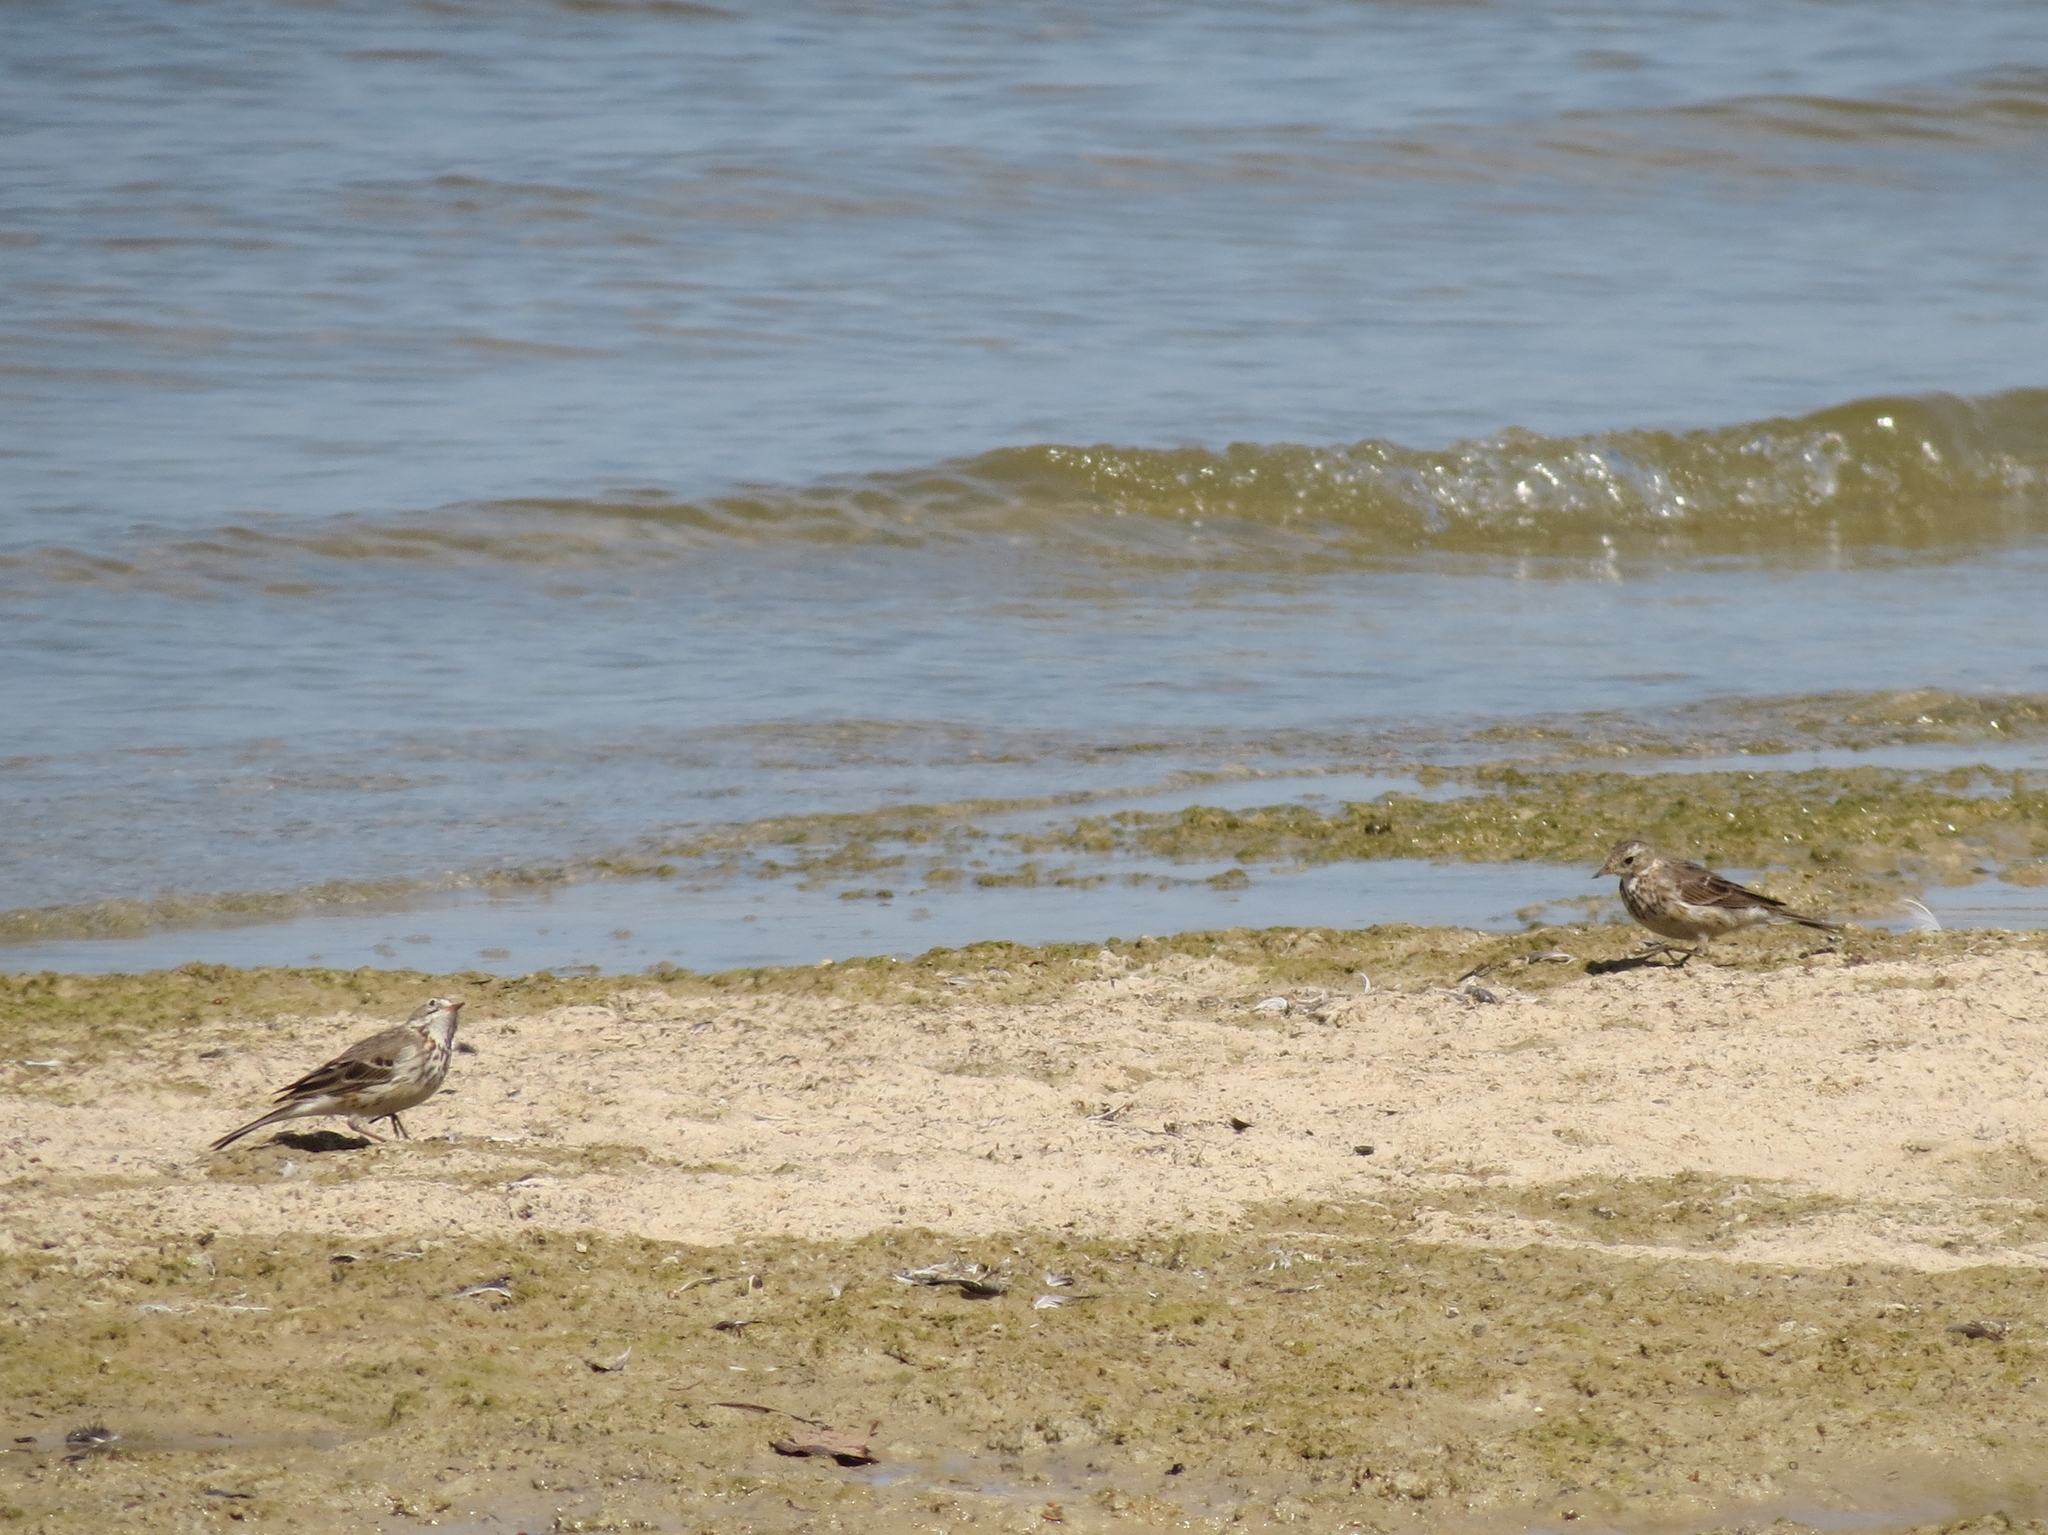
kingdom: Animalia
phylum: Chordata
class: Aves
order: Passeriformes
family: Motacillidae
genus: Anthus
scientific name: Anthus rubescens
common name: Buff-bellied pipit
